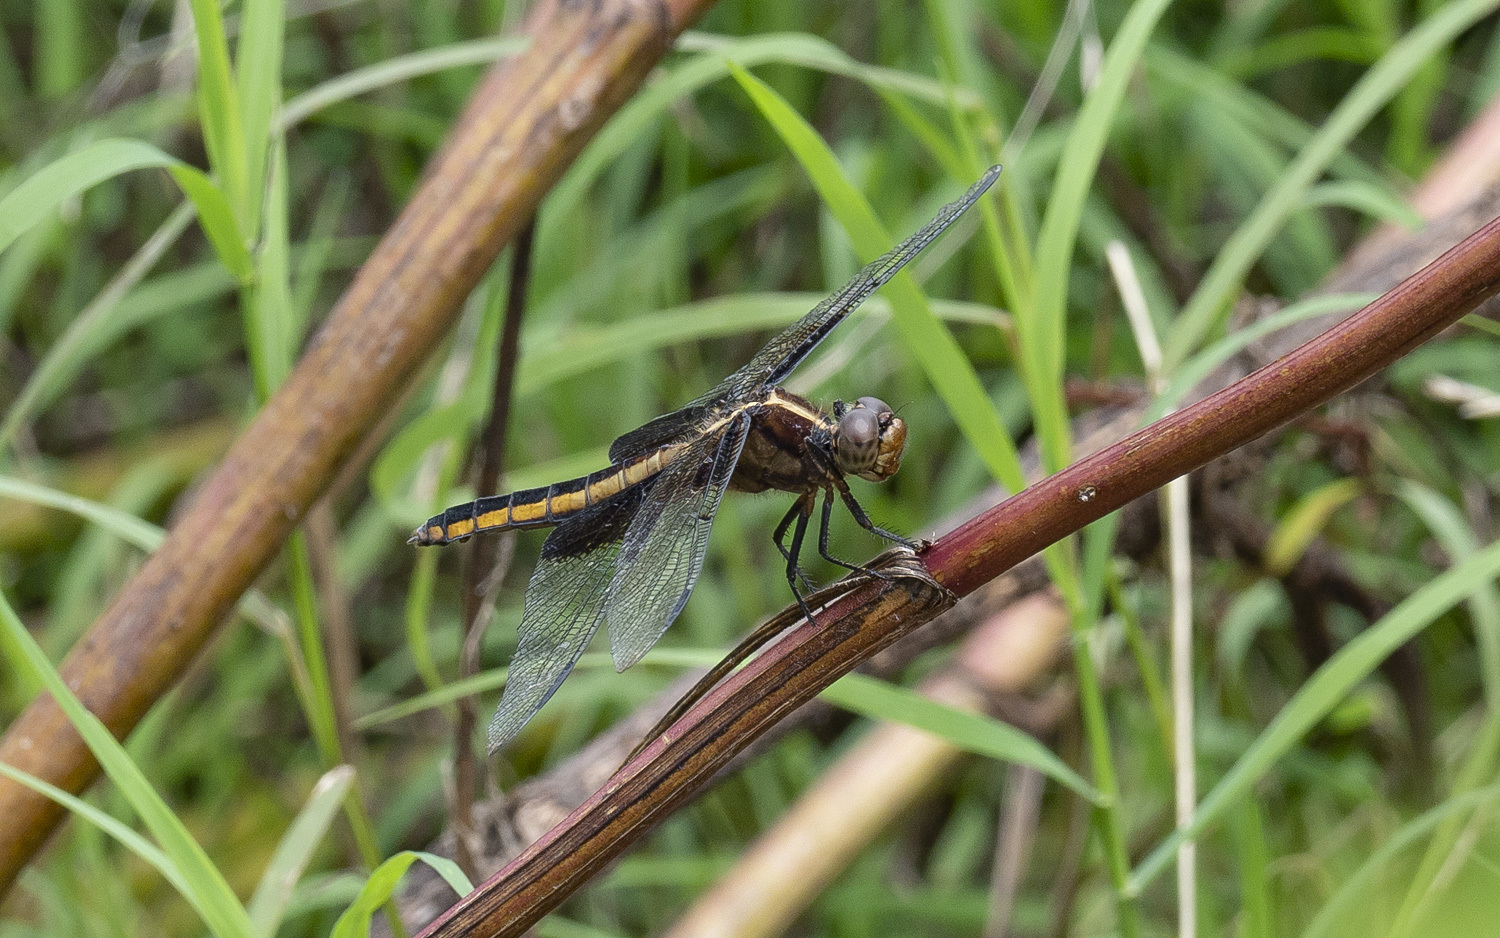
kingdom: Animalia
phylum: Arthropoda
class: Insecta
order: Odonata
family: Libellulidae
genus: Libellula
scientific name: Libellula luctuosa
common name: Widow skimmer
